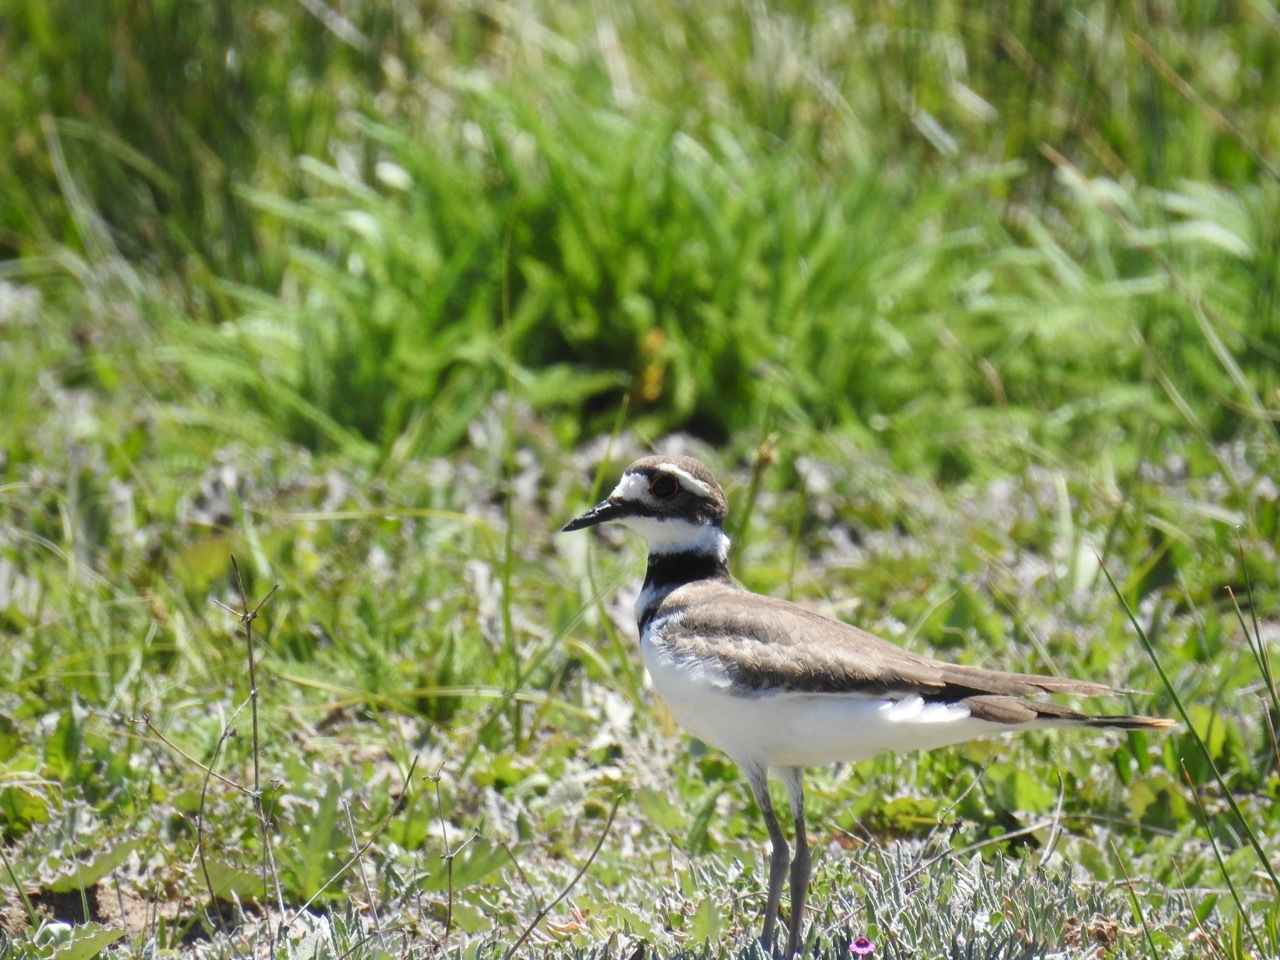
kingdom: Animalia
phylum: Chordata
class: Aves
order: Charadriiformes
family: Charadriidae
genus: Charadrius
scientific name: Charadrius vociferus
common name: Killdeer
